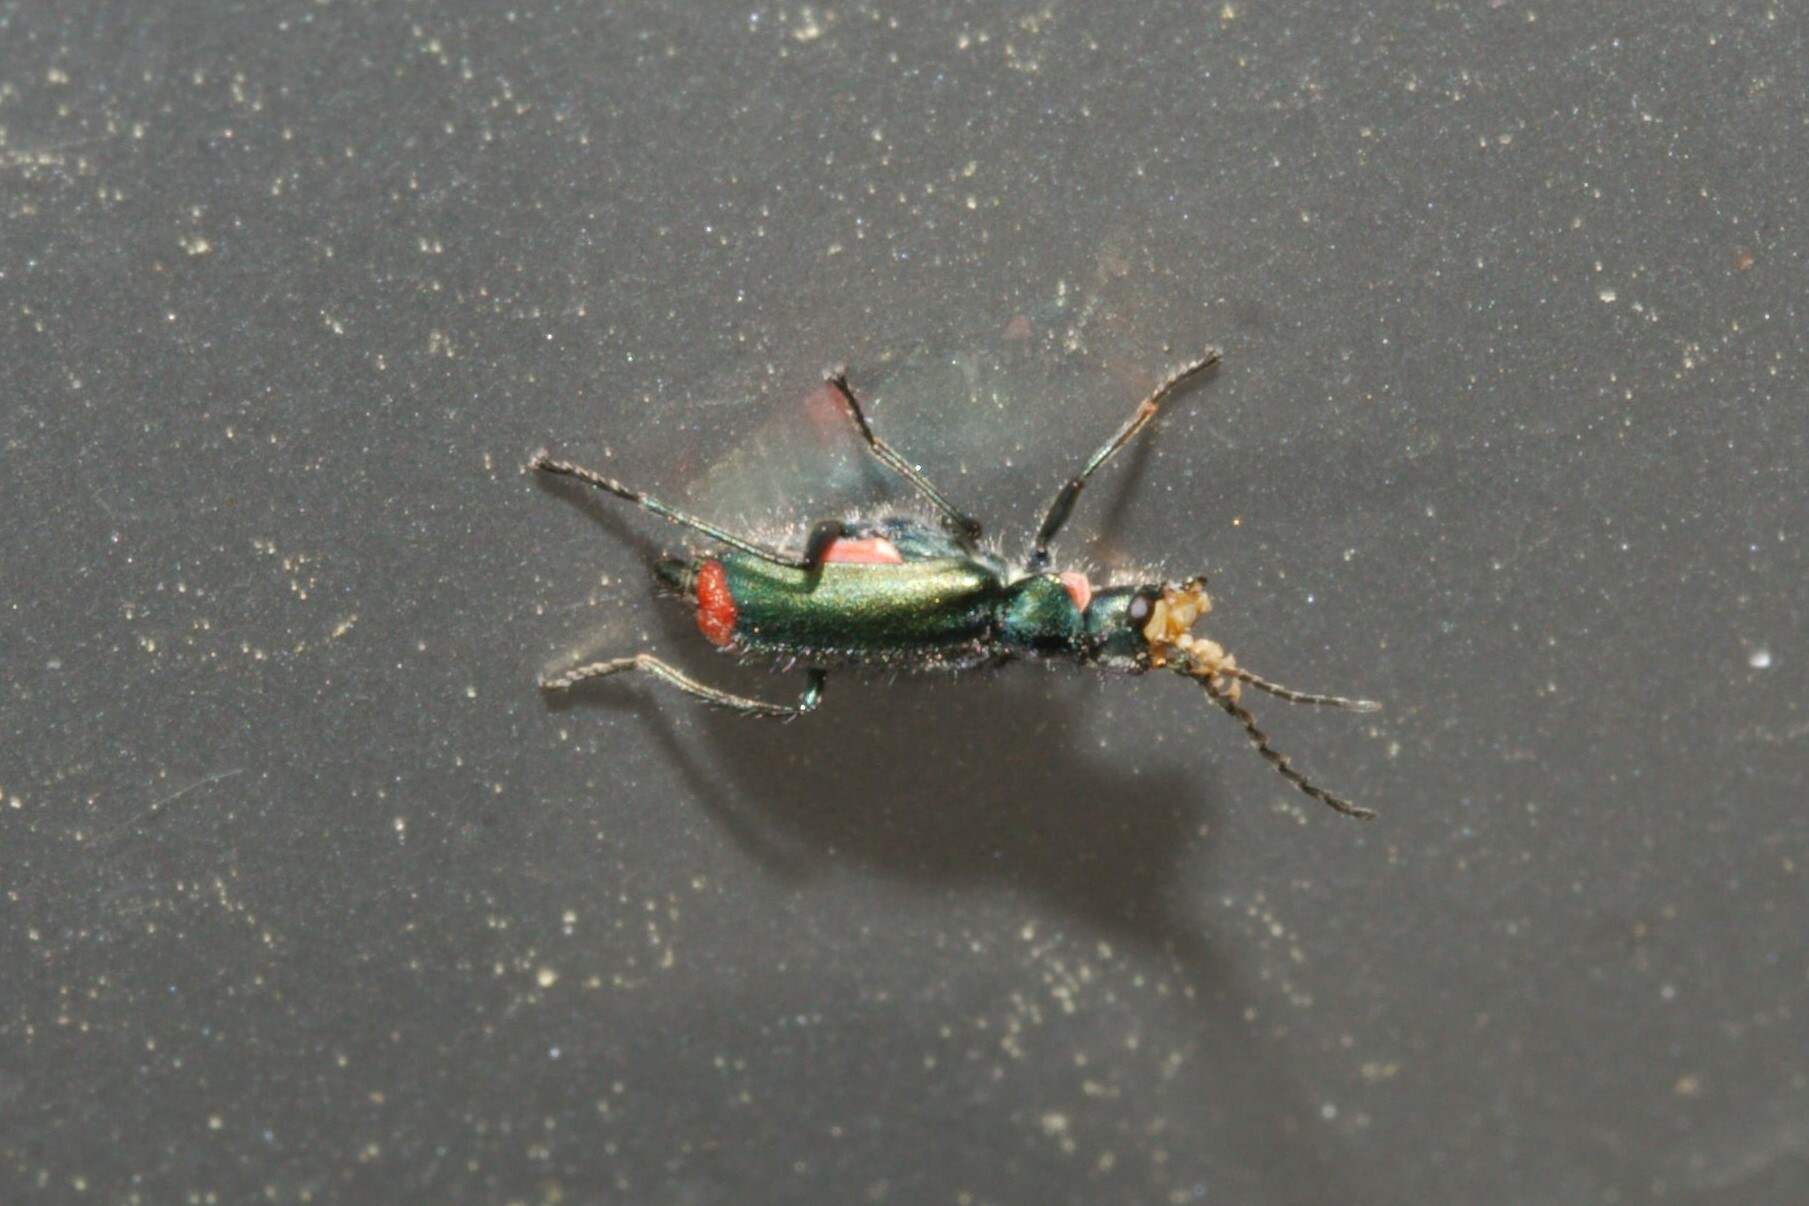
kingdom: Animalia
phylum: Arthropoda
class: Insecta
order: Coleoptera
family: Melyridae
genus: Malachius
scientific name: Malachius bipustulatus
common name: Malachite beetle
